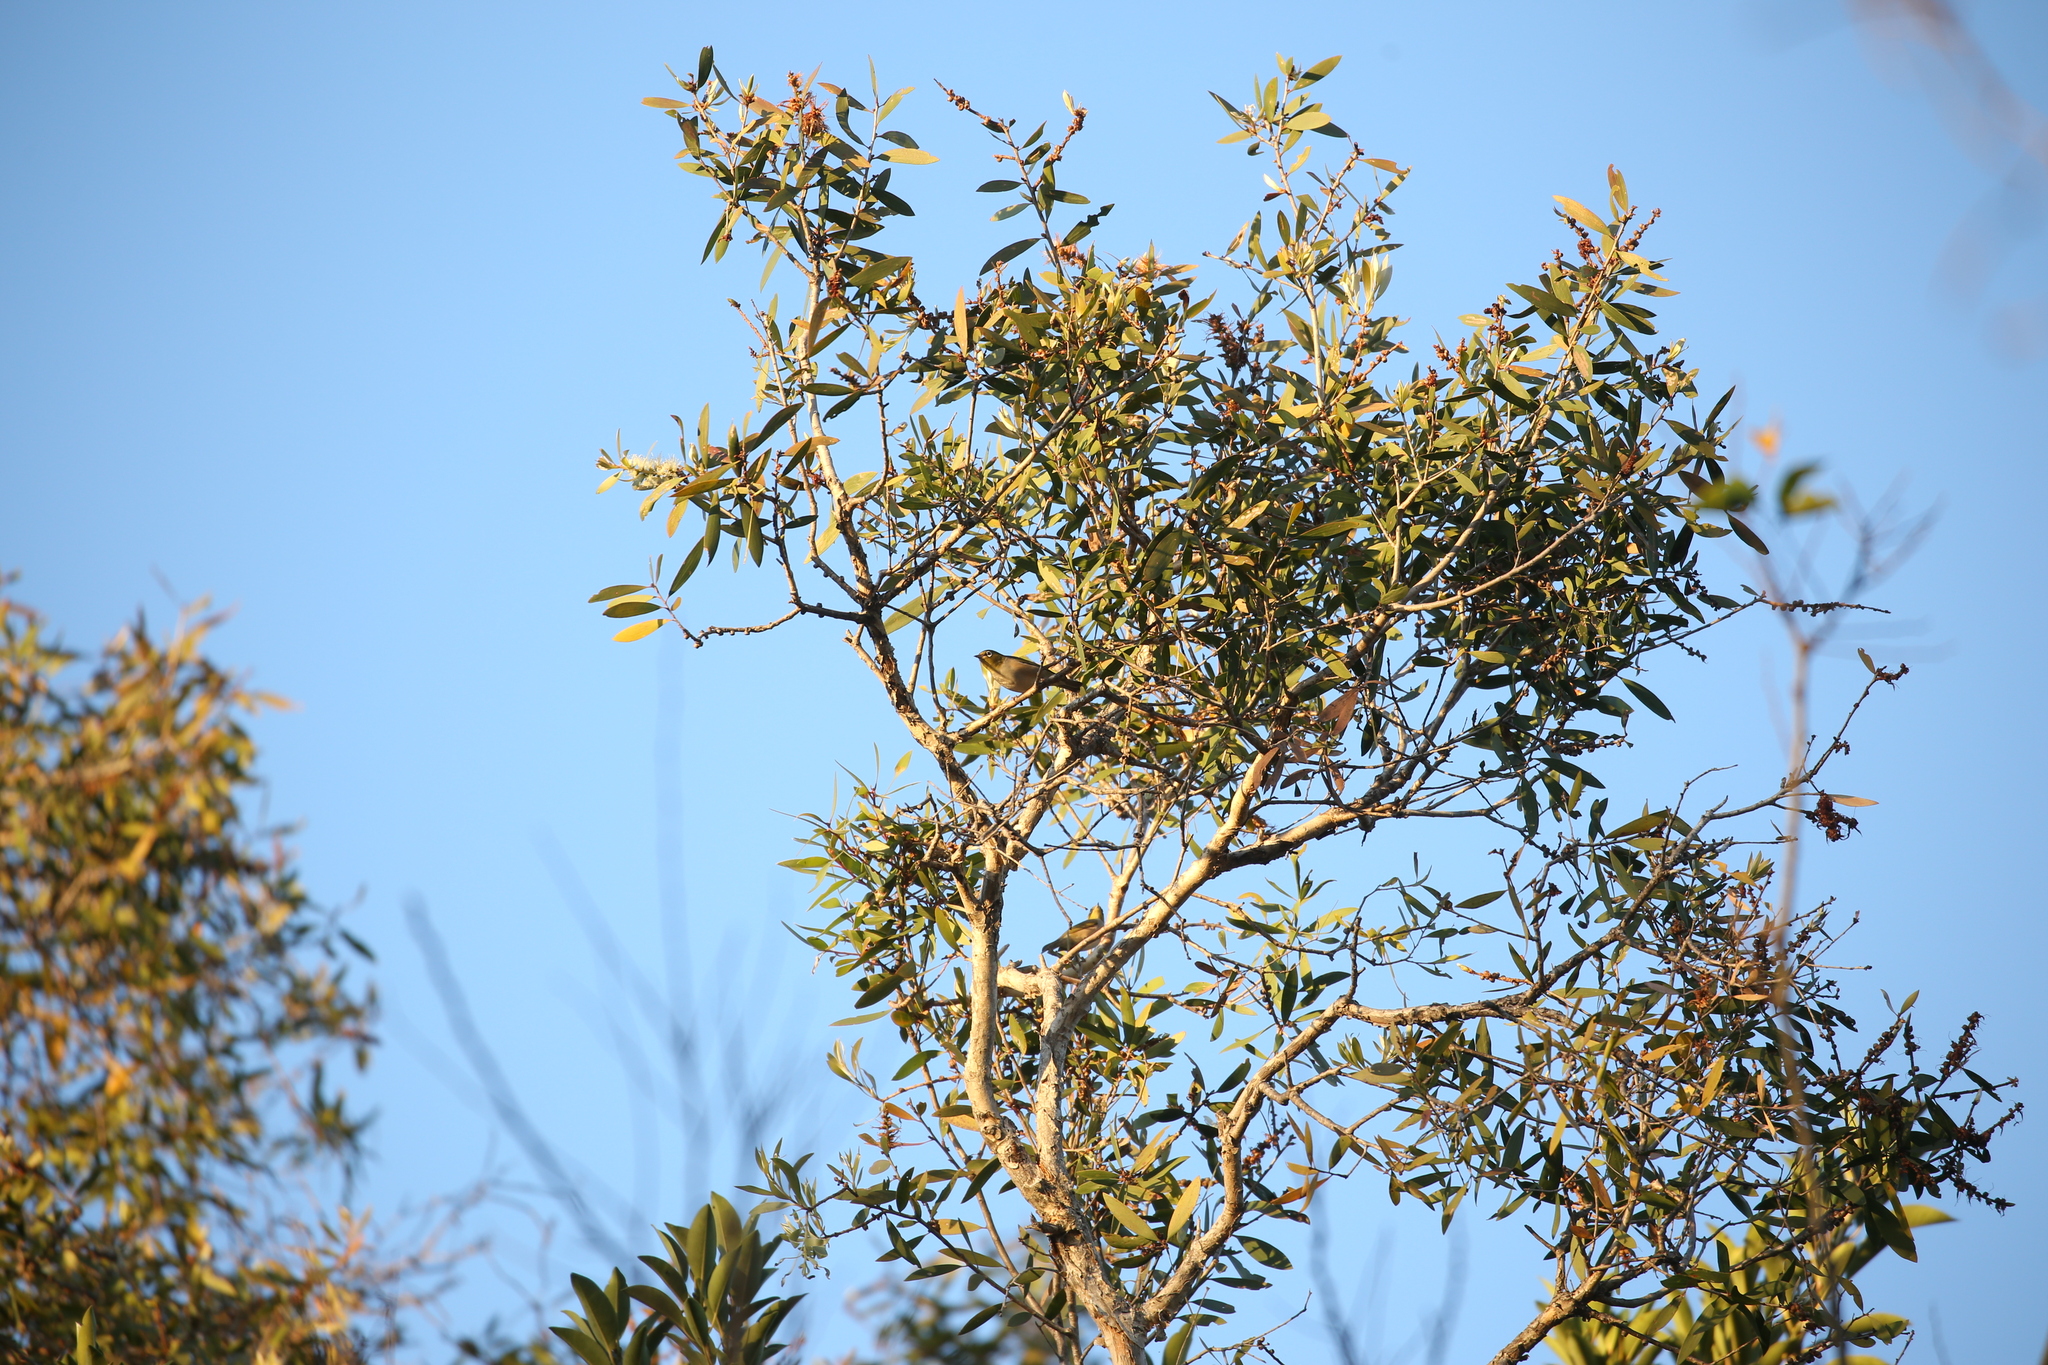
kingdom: Animalia
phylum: Chordata
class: Aves
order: Passeriformes
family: Zosteropidae
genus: Zosterops
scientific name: Zosterops lateralis
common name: Silvereye
